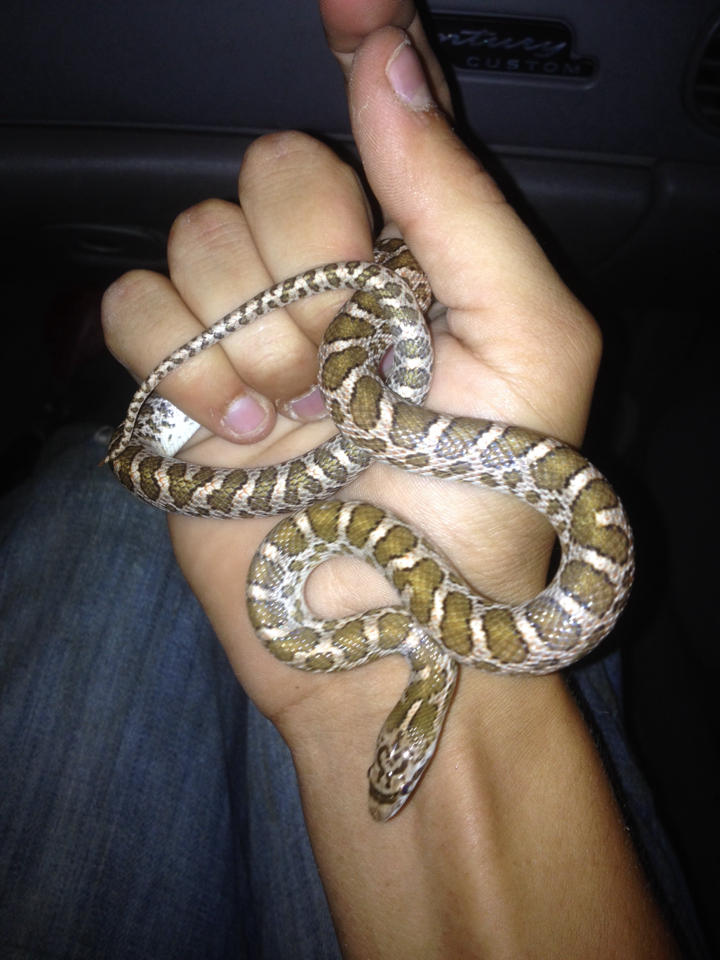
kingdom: Animalia
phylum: Chordata
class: Squamata
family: Colubridae
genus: Arizona
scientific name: Arizona elegans
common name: Glossy snake
